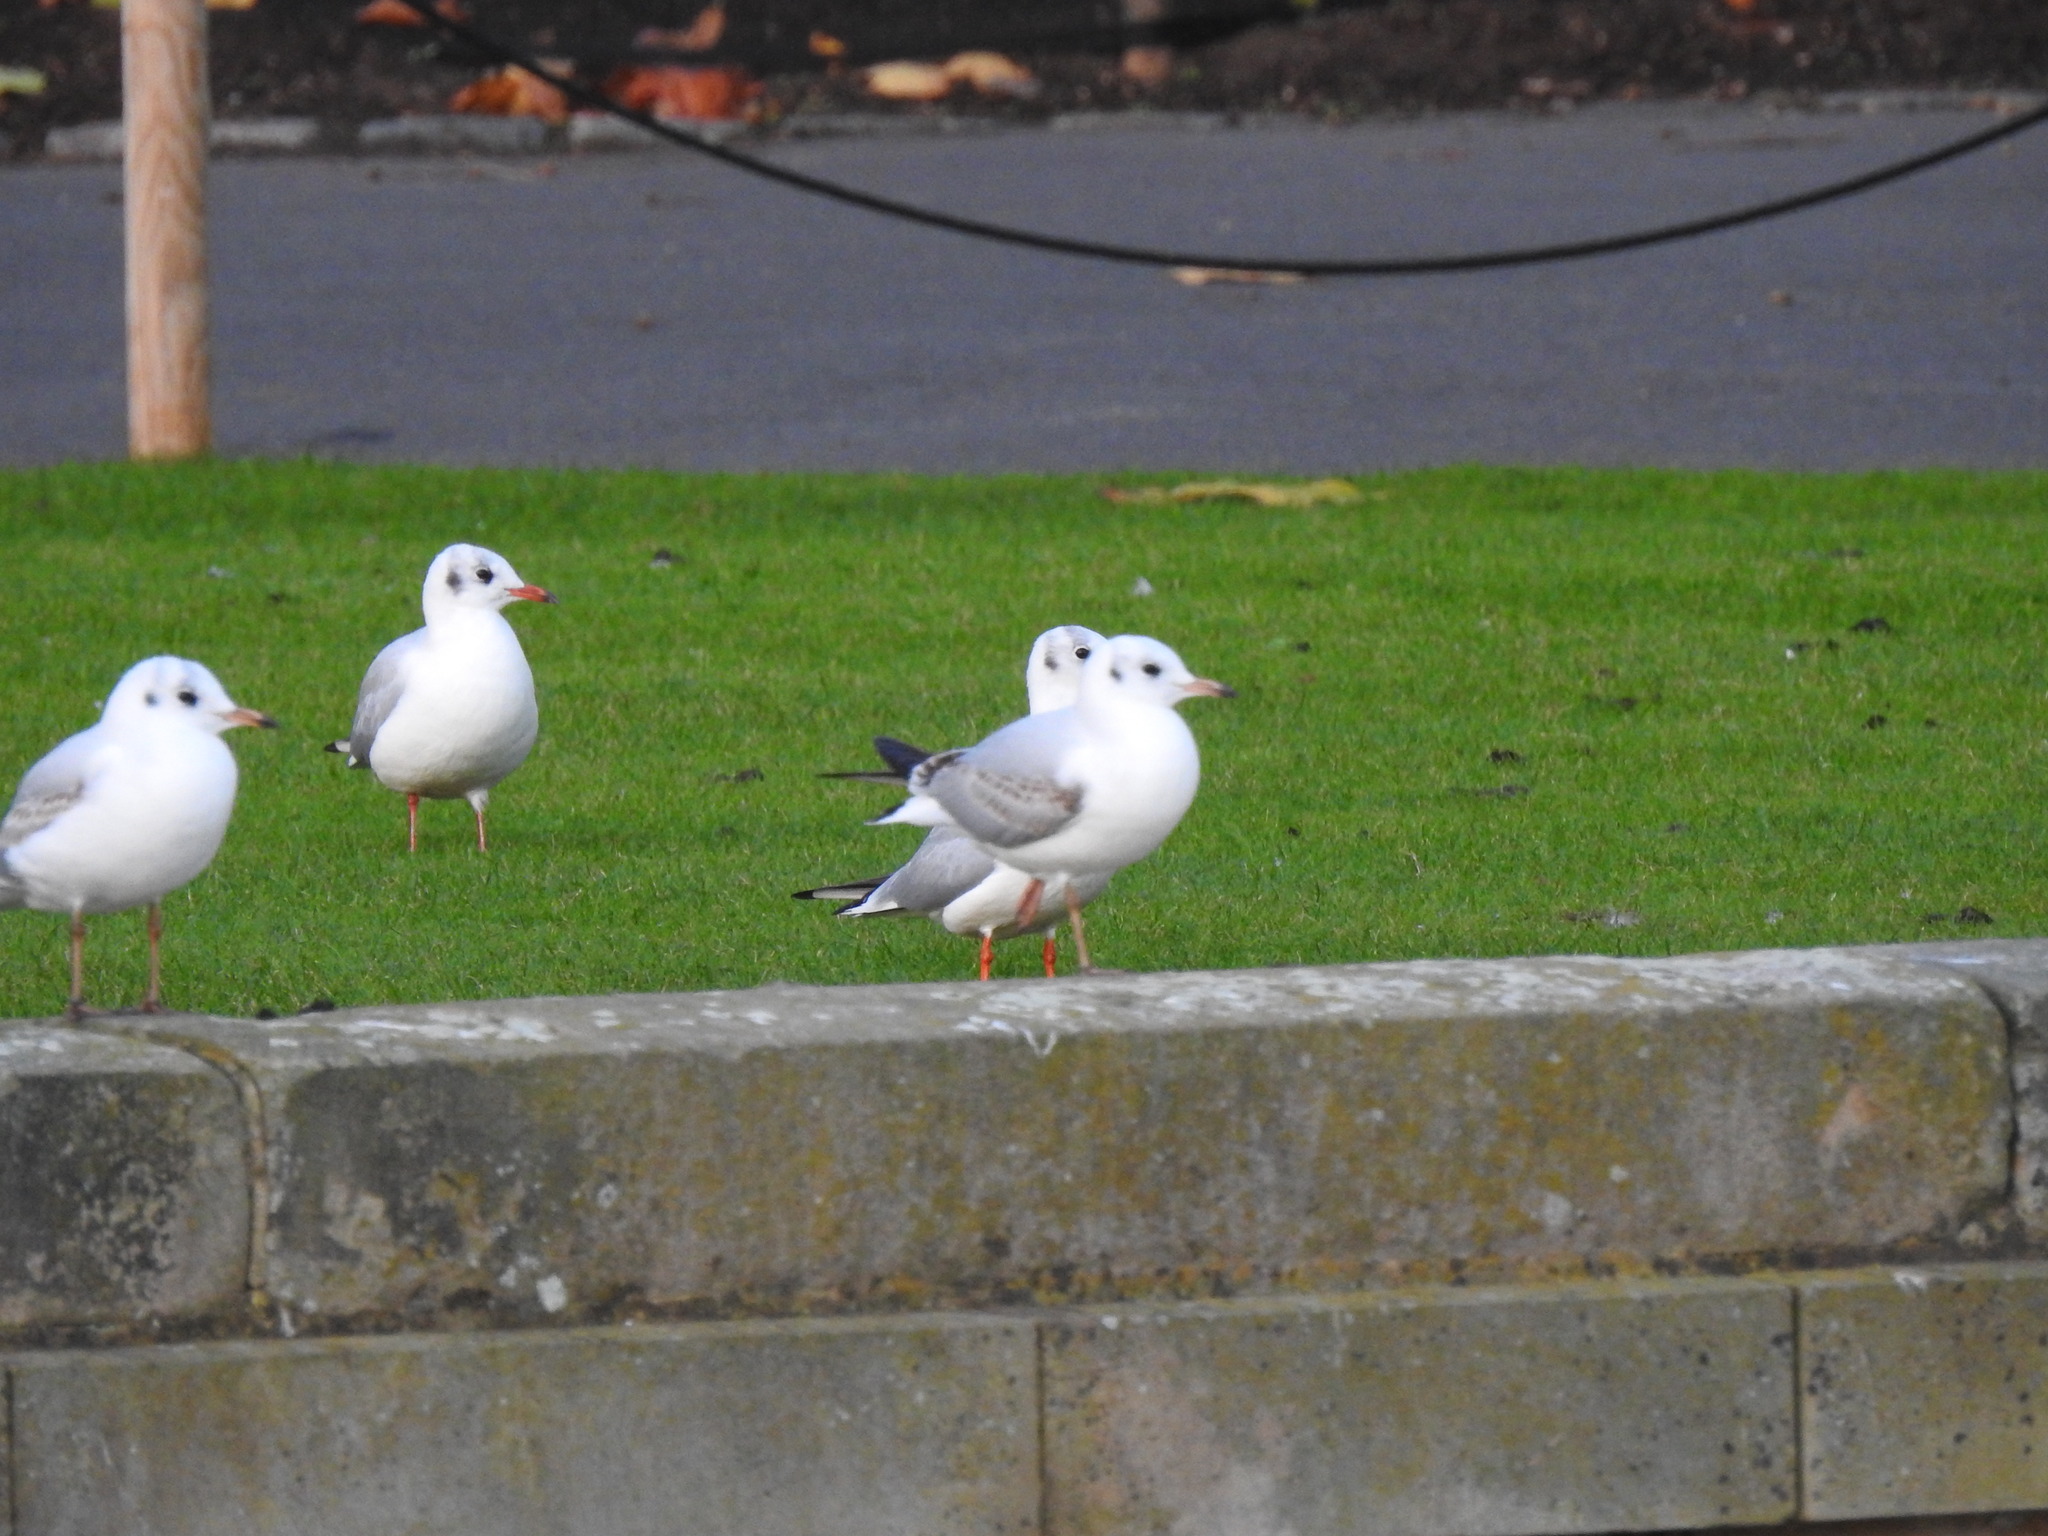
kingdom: Animalia
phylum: Chordata
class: Aves
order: Charadriiformes
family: Laridae
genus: Chroicocephalus
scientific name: Chroicocephalus ridibundus
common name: Black-headed gull
